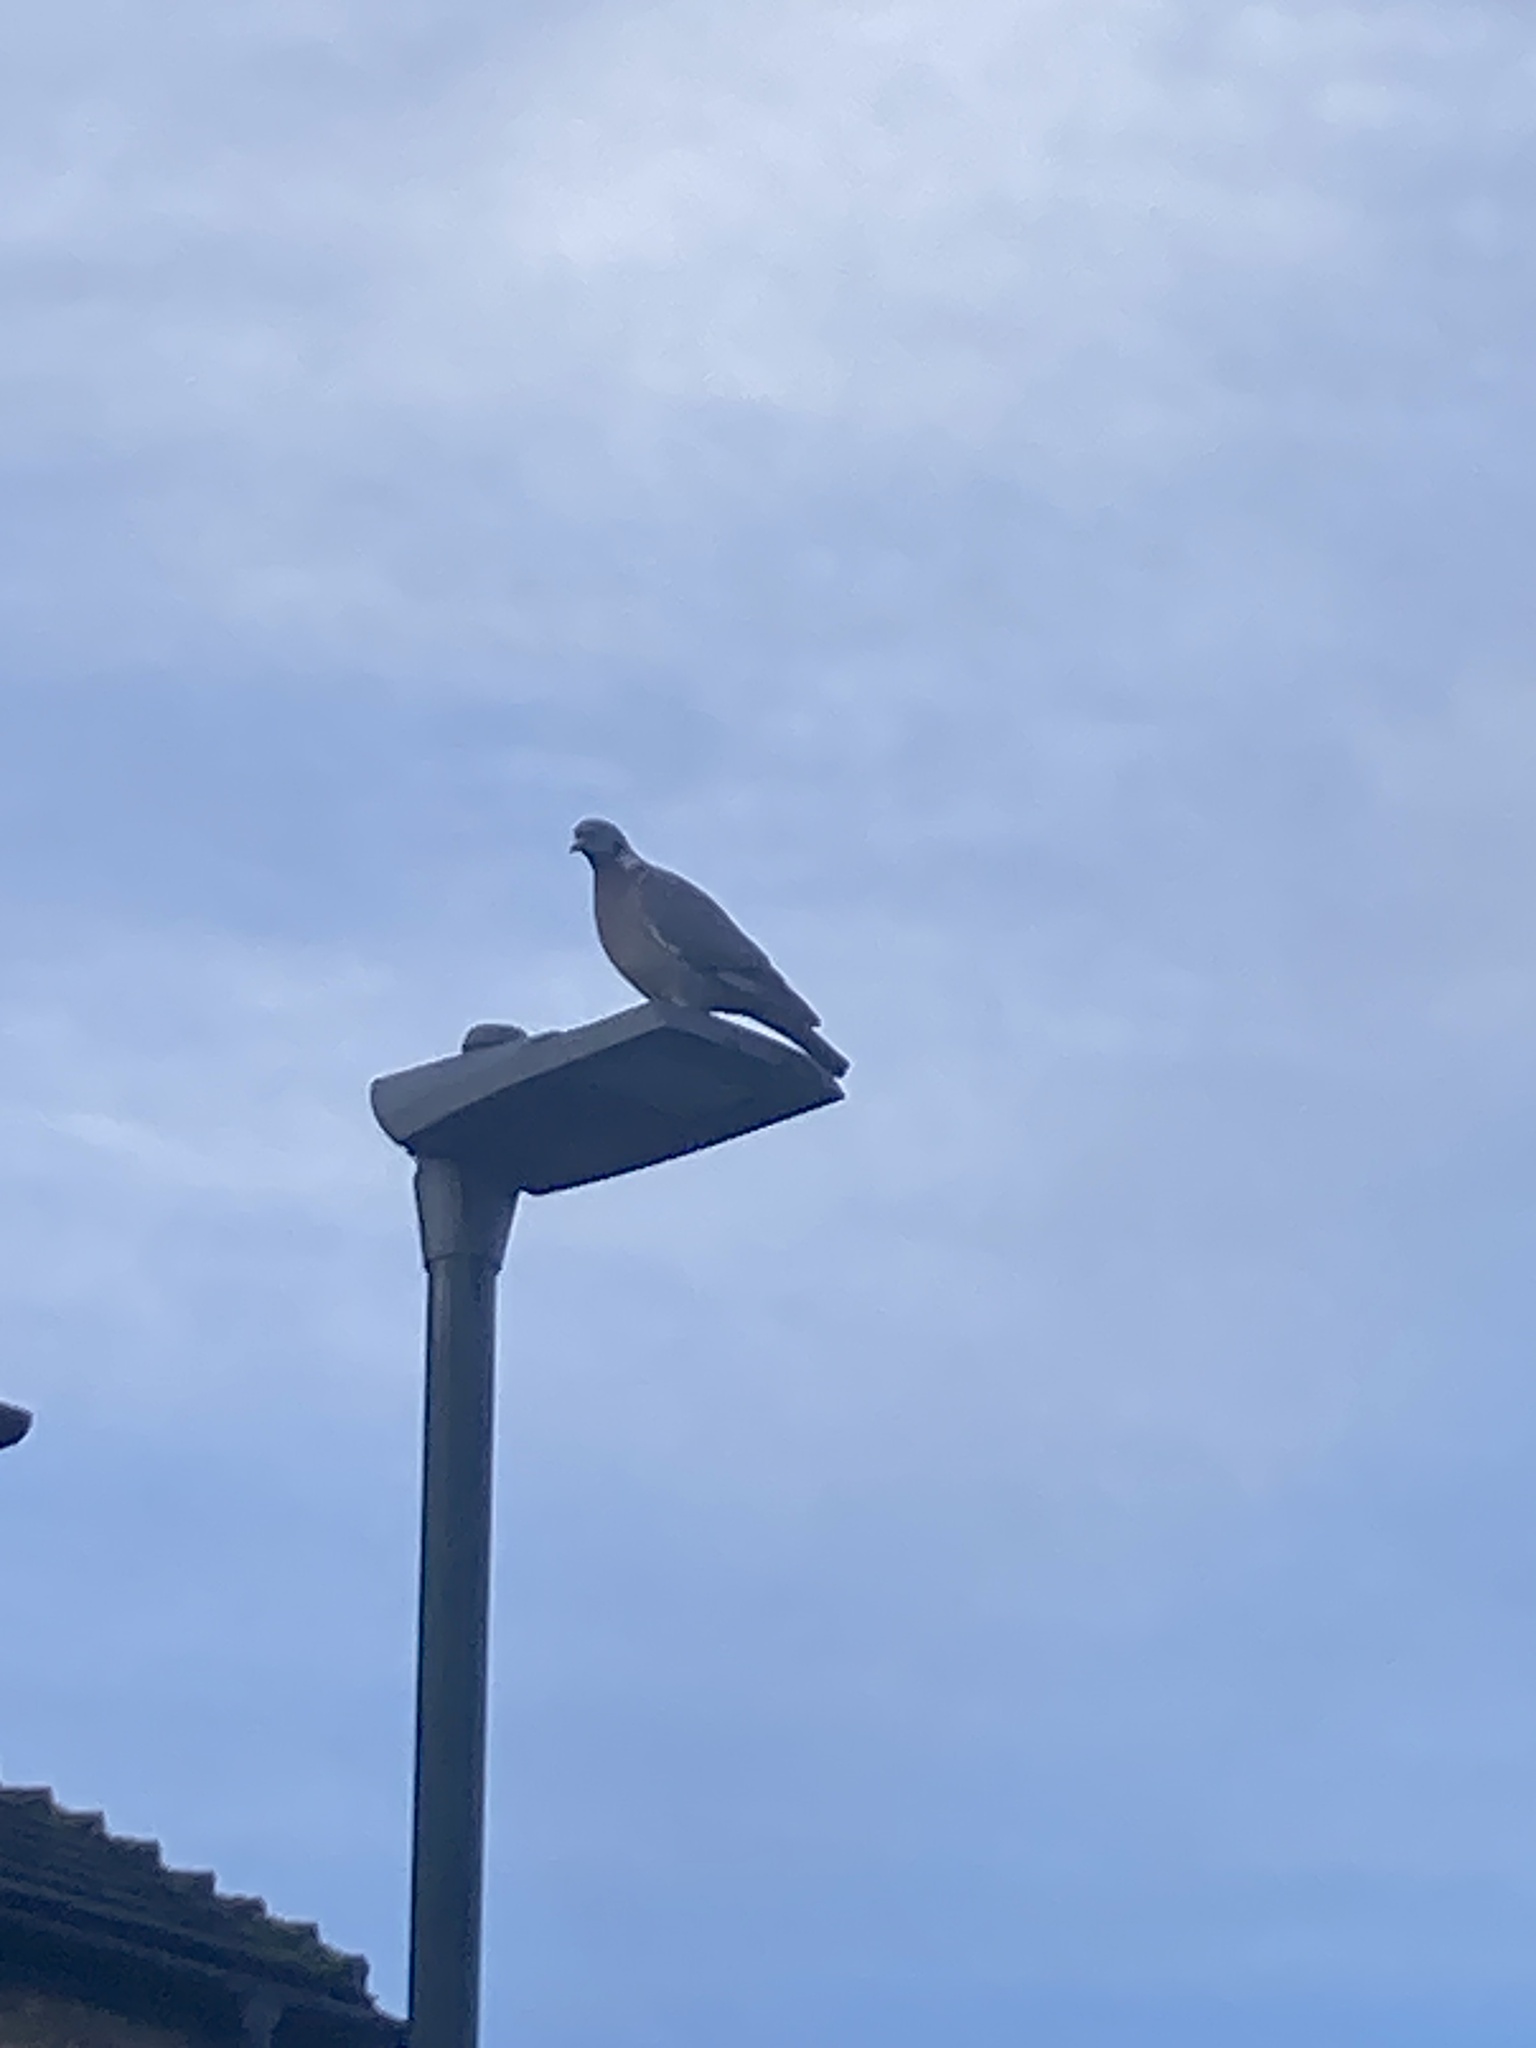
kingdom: Animalia
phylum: Chordata
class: Aves
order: Columbiformes
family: Columbidae
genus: Columba
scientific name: Columba palumbus
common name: Common wood pigeon
